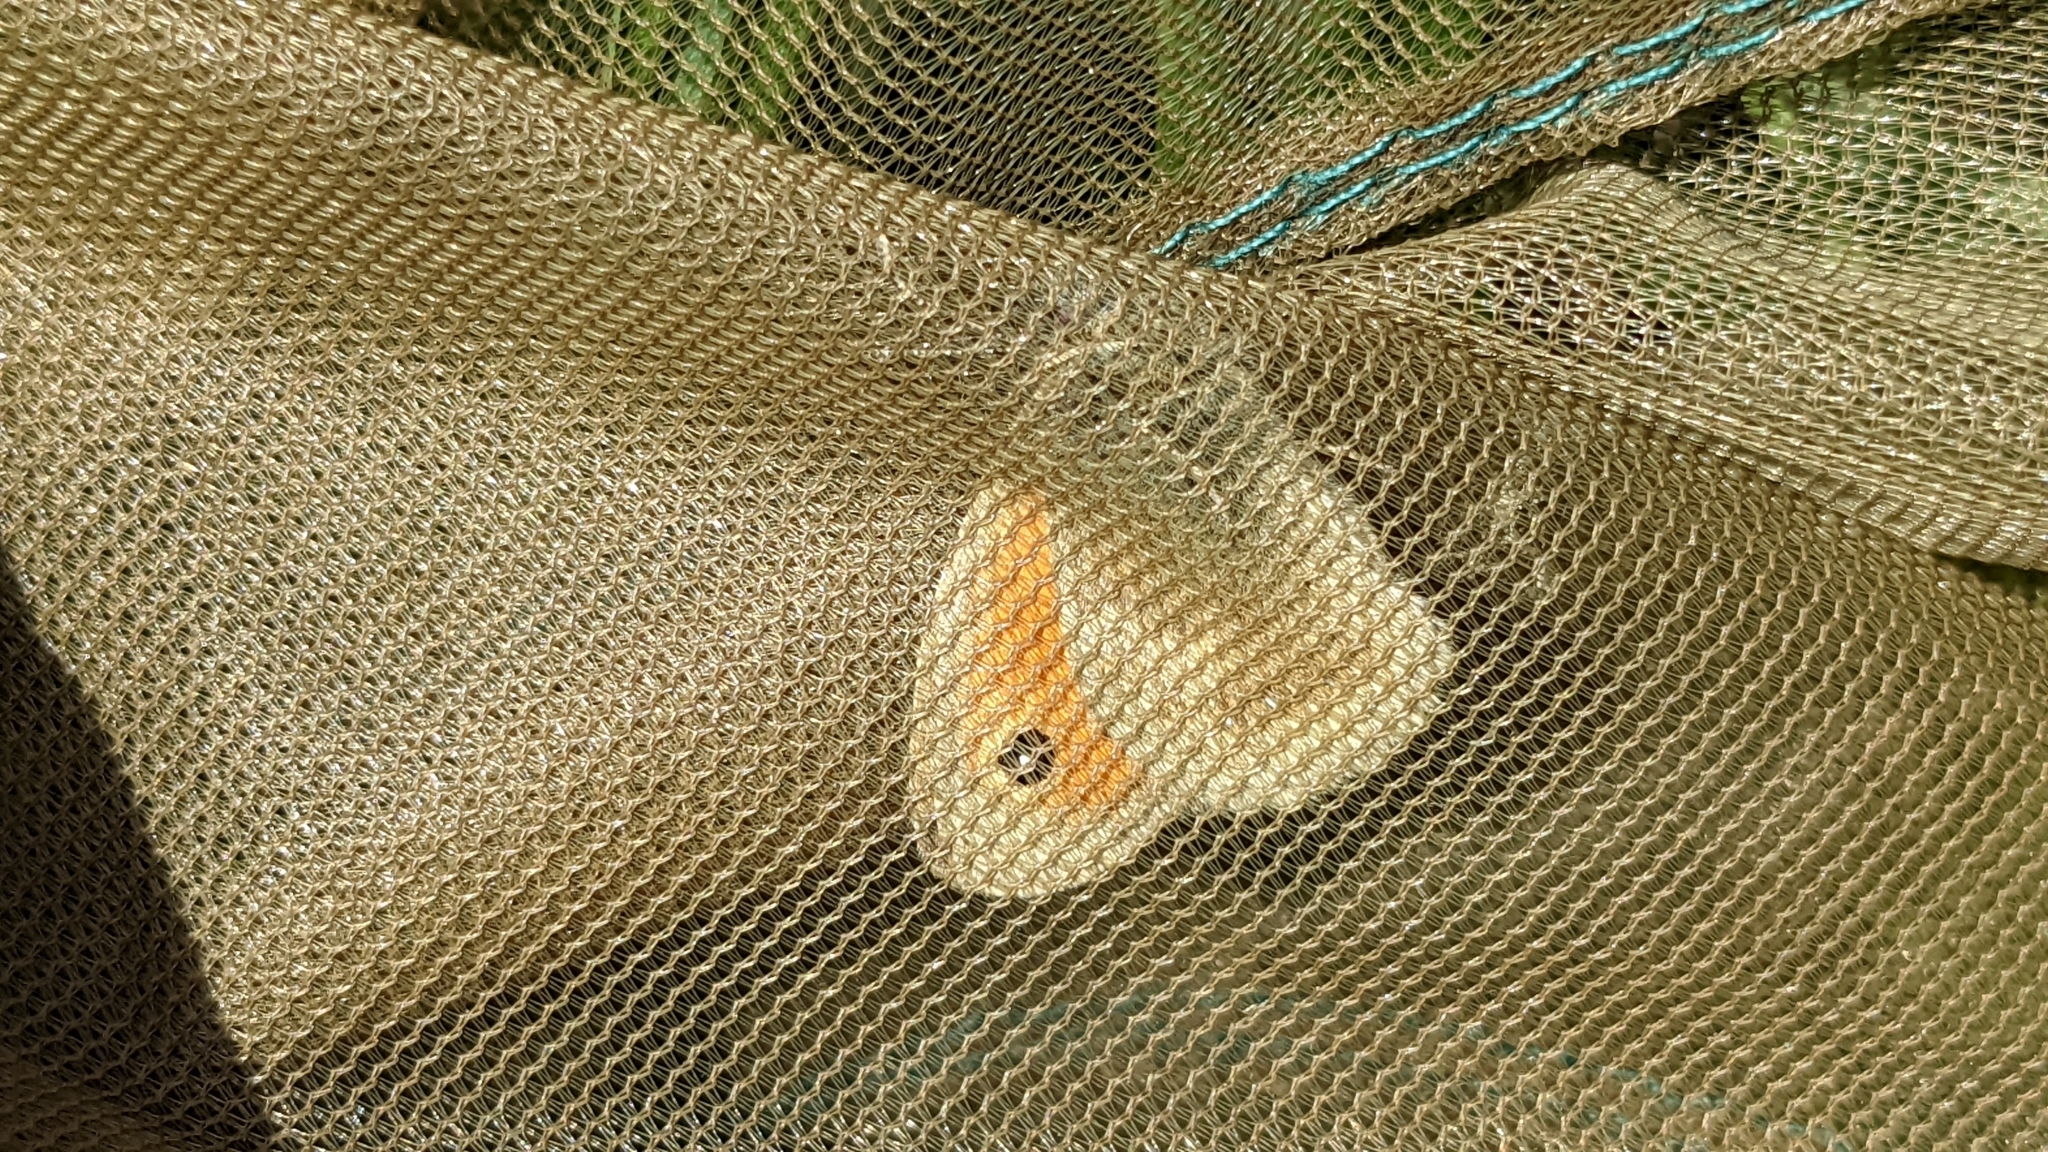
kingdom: Animalia
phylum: Arthropoda
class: Insecta
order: Lepidoptera
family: Nymphalidae
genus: Coenonympha
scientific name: Coenonympha pamphilus
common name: Small heath
